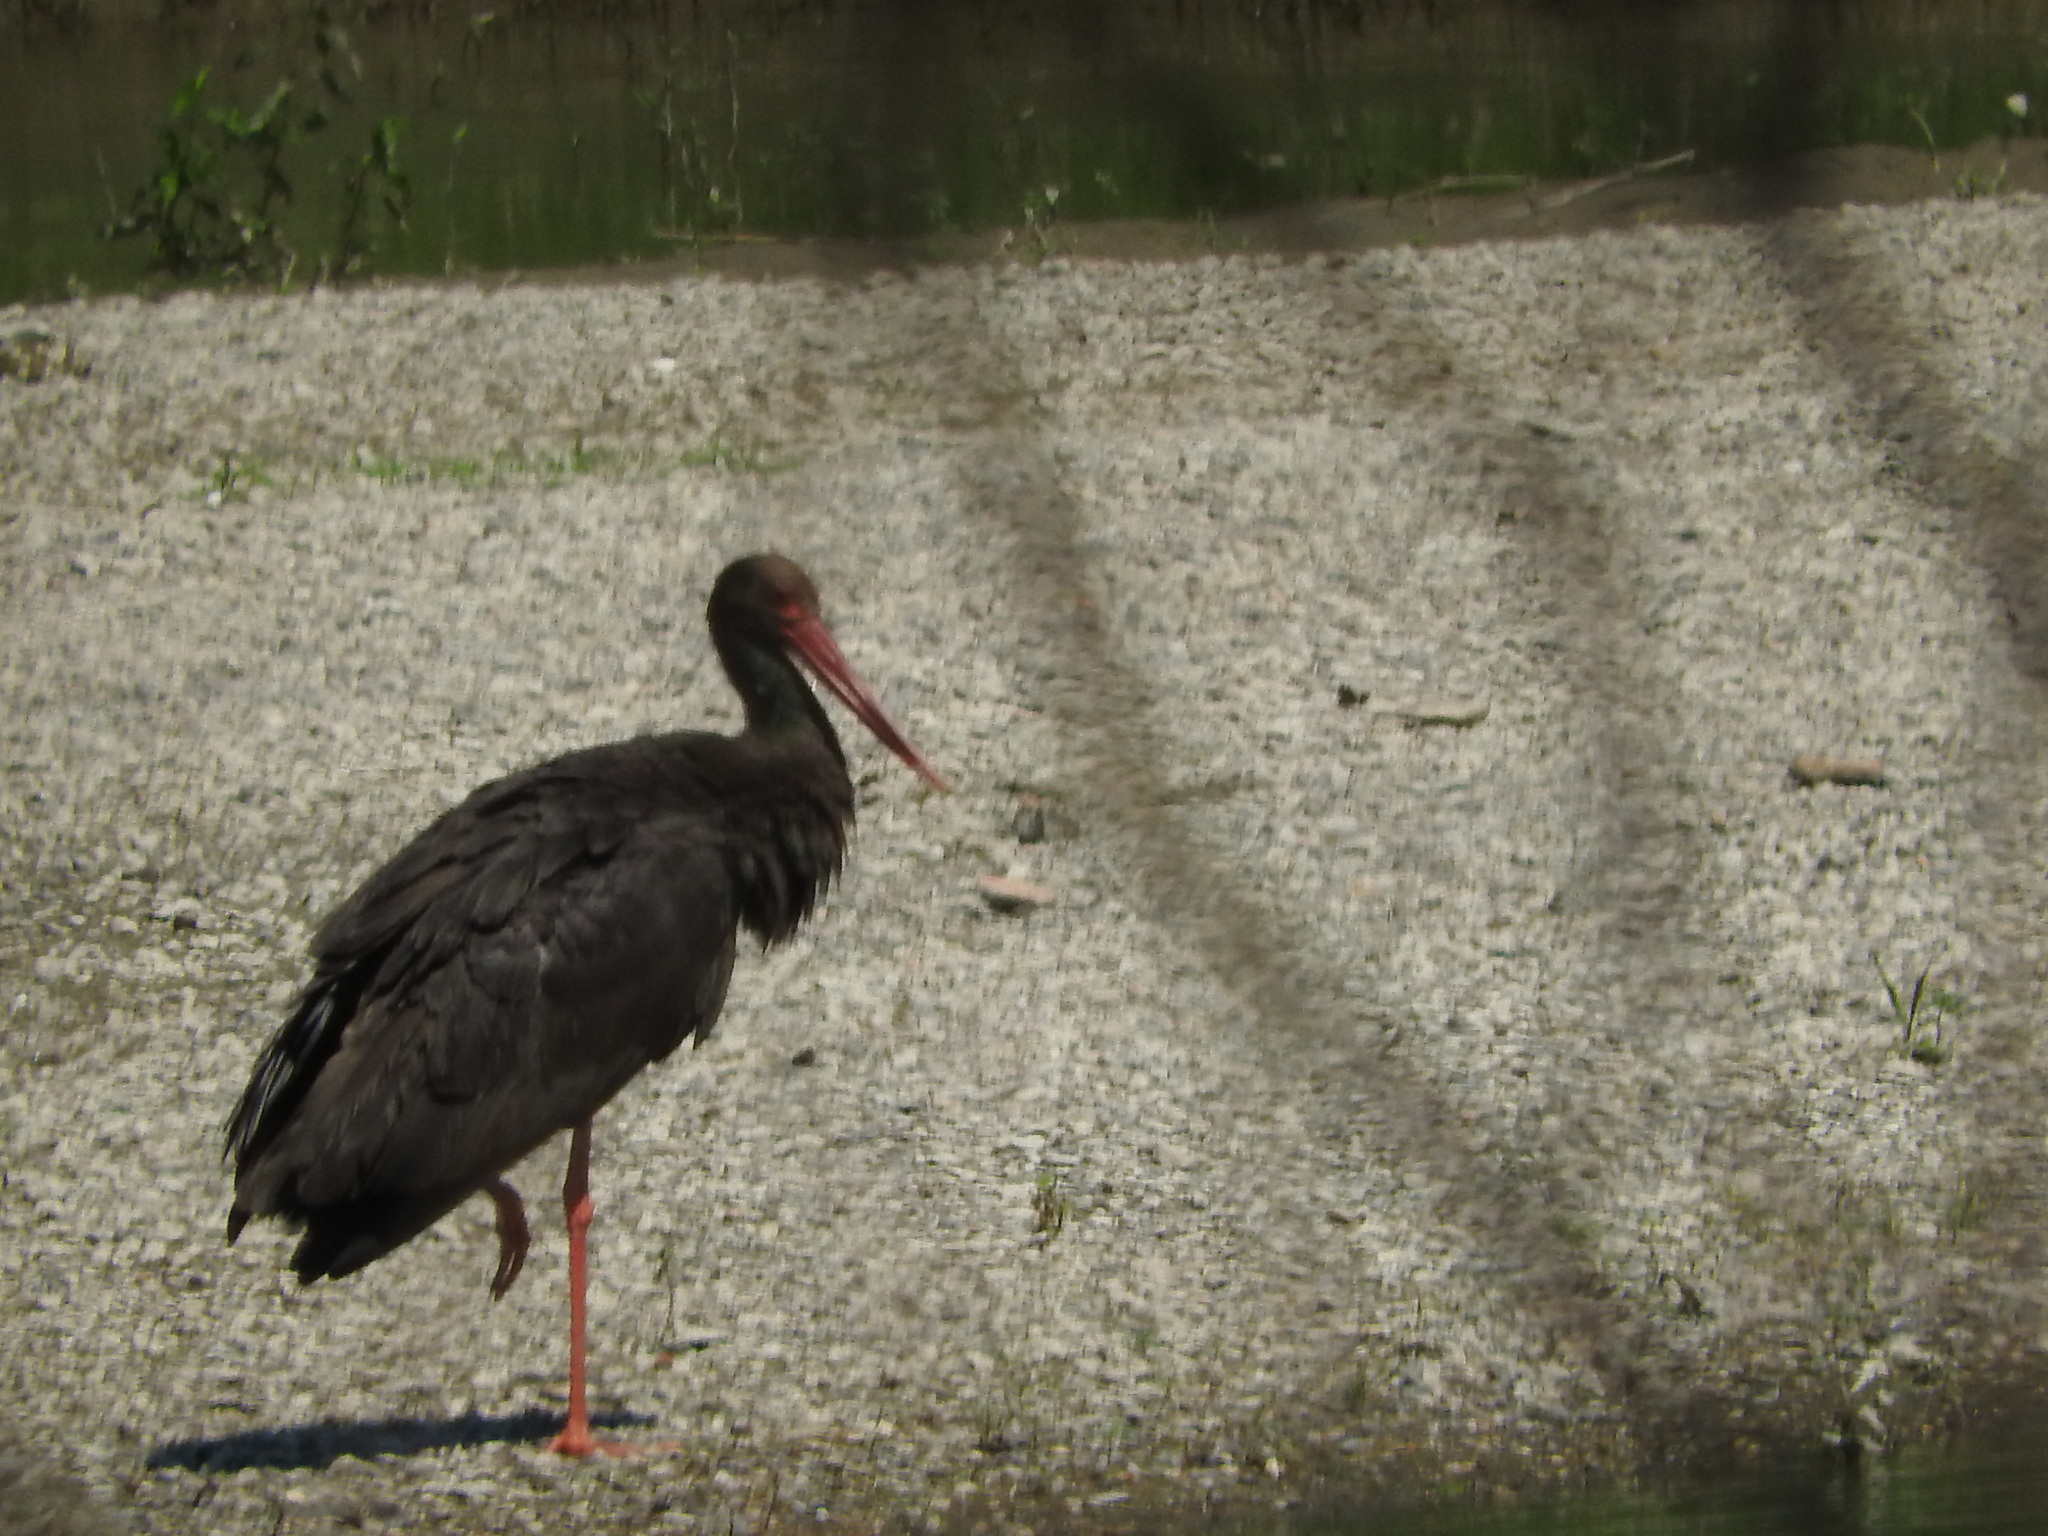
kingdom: Animalia
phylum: Chordata
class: Aves
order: Ciconiiformes
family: Ciconiidae
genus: Ciconia
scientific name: Ciconia nigra
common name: Black stork
